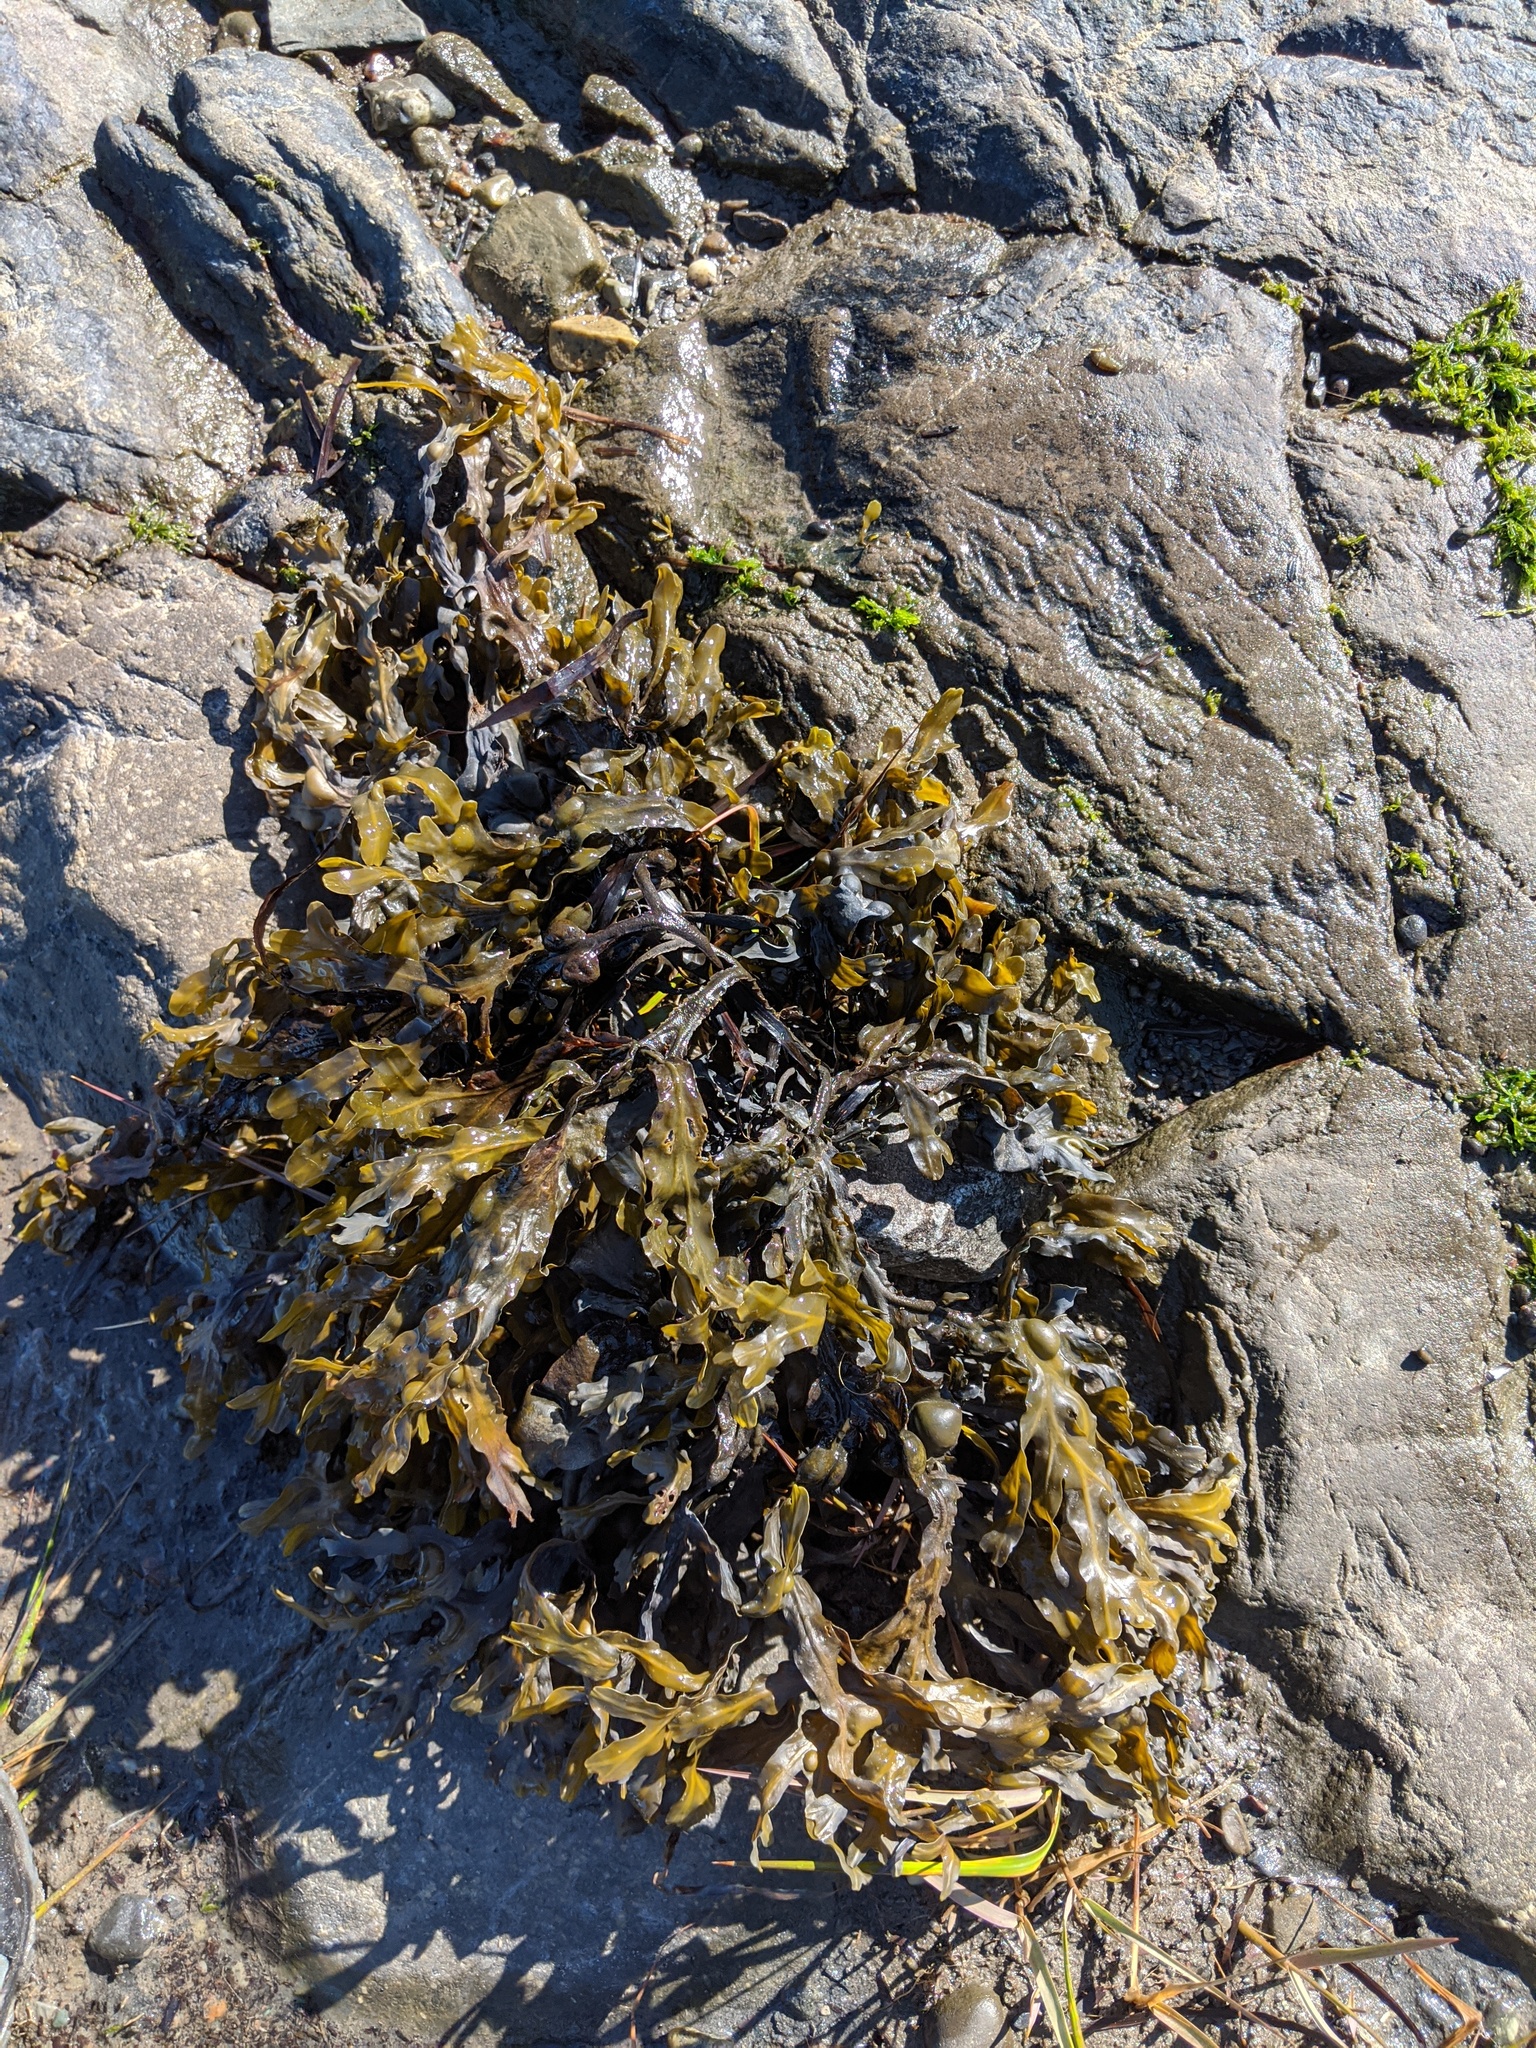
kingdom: Chromista
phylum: Ochrophyta
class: Phaeophyceae
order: Fucales
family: Fucaceae
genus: Fucus
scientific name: Fucus vesiculosus
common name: Bladder wrack
